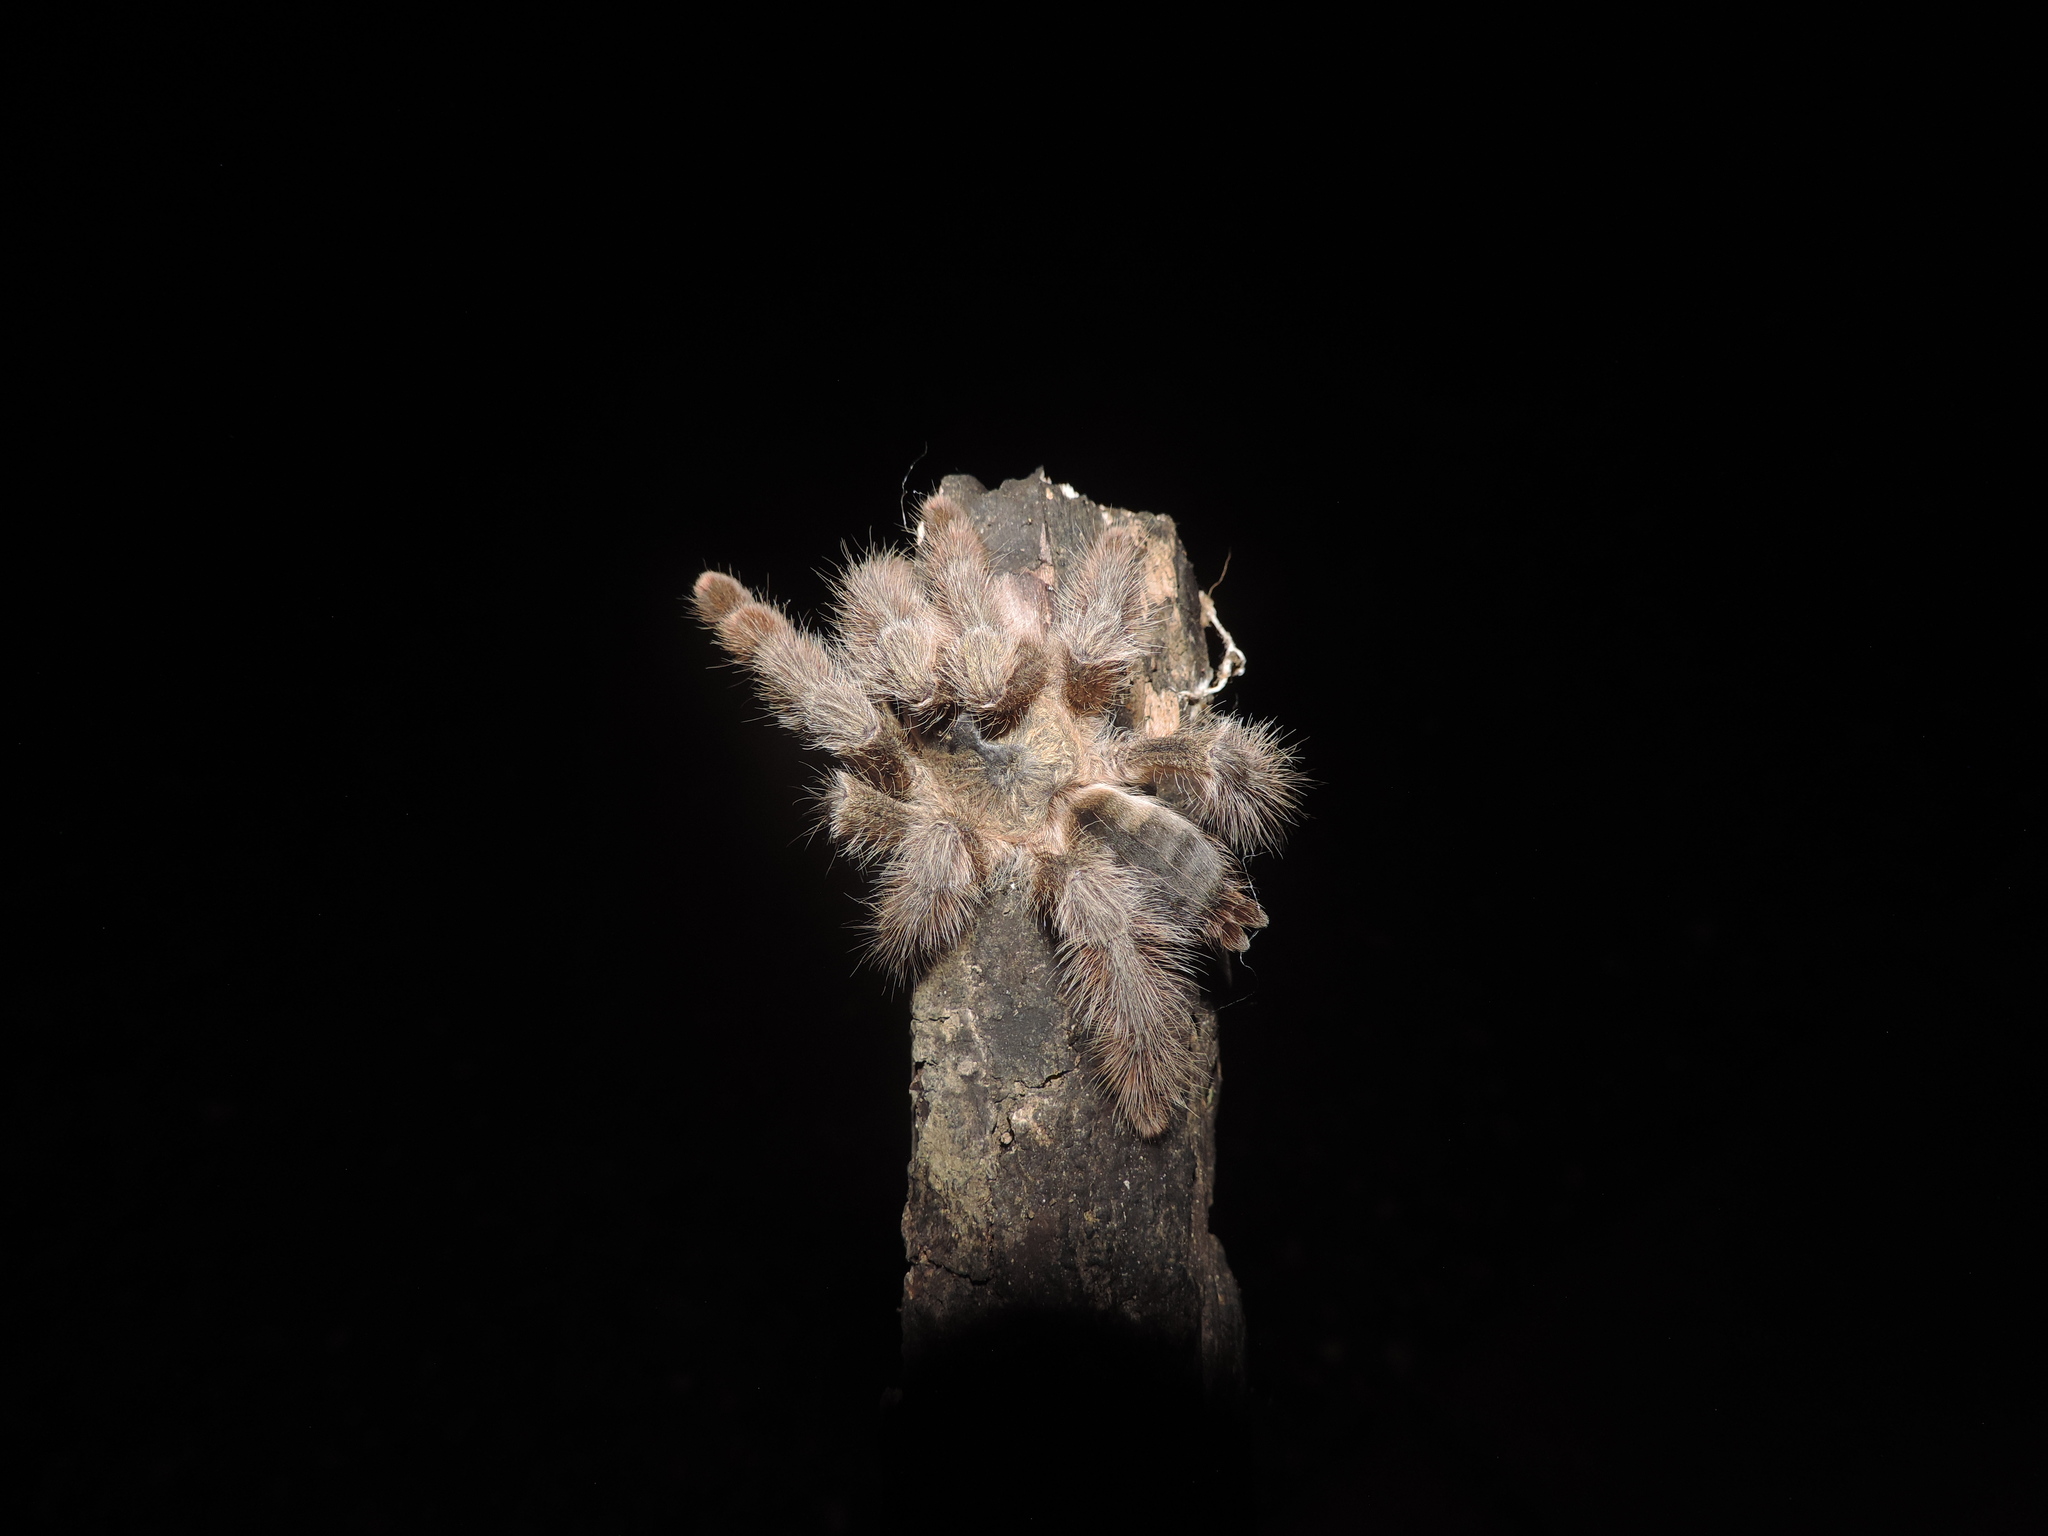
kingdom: Animalia
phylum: Arthropoda
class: Arachnida
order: Araneae
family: Theraphosidae
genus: Psalmopoeus
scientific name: Psalmopoeus pulcher
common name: Tarantula spiders
